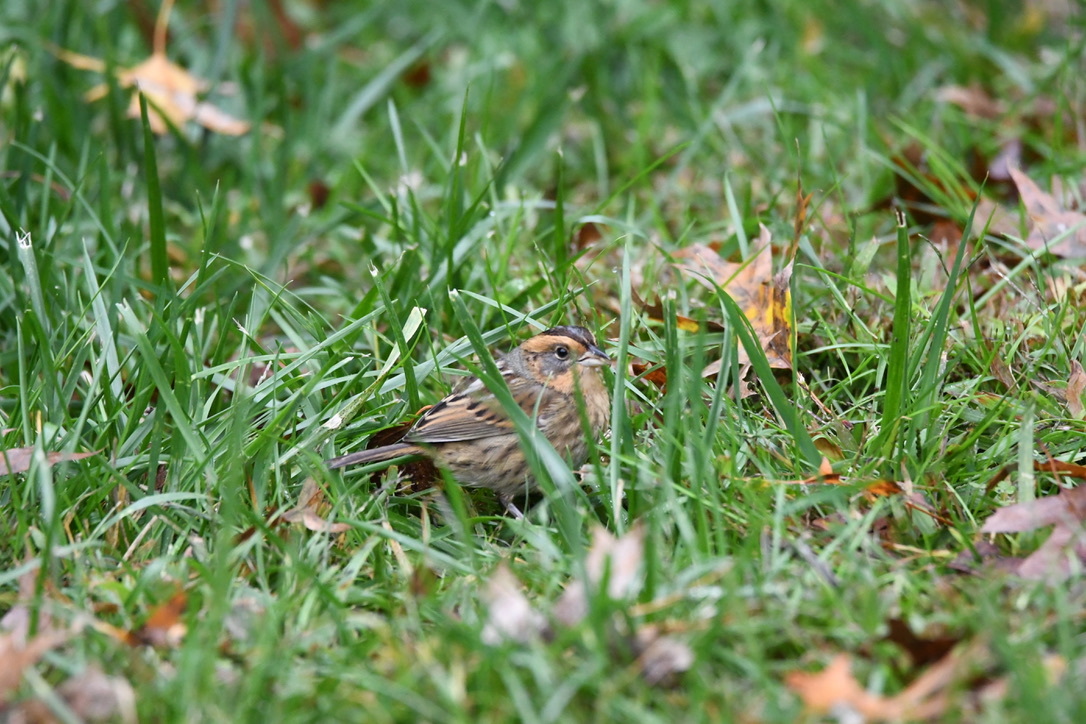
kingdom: Animalia
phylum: Chordata
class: Aves
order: Passeriformes
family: Passerellidae
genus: Ammospiza
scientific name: Ammospiza nelsoni
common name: Nelson's sparrow
